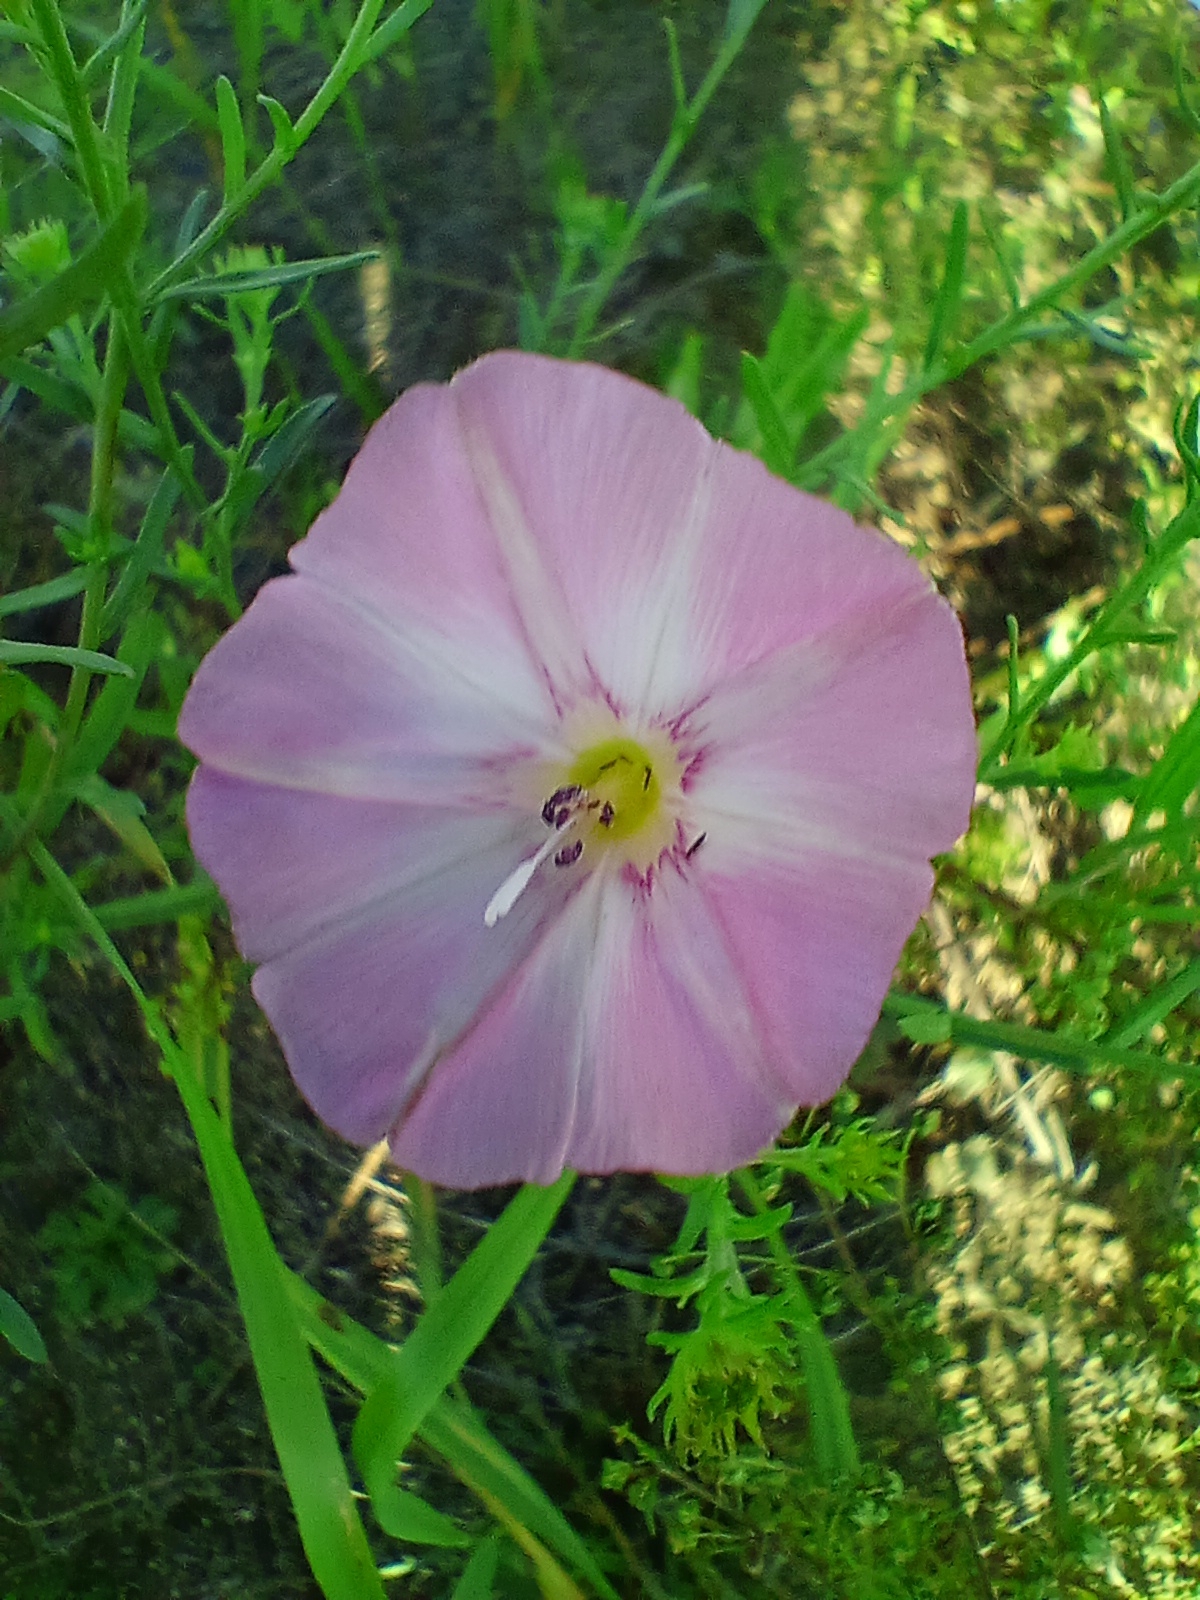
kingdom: Plantae
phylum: Tracheophyta
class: Magnoliopsida
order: Solanales
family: Convolvulaceae
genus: Convolvulus
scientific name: Convolvulus chinensis
